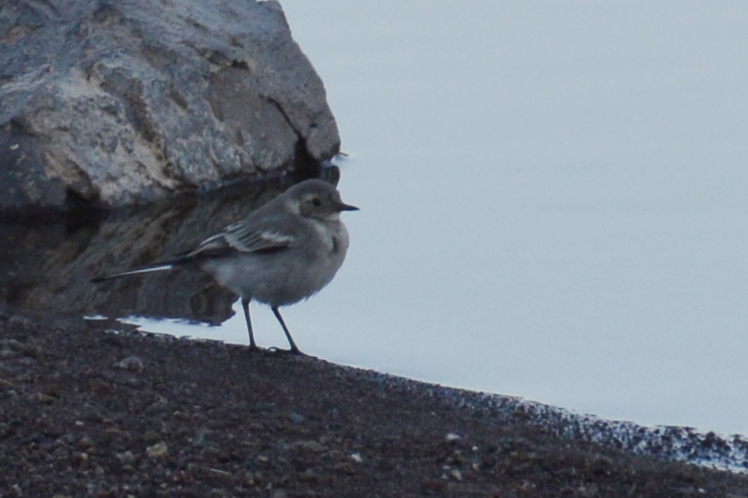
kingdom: Animalia
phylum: Chordata
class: Aves
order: Passeriformes
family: Motacillidae
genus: Motacilla
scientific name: Motacilla alba
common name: White wagtail
